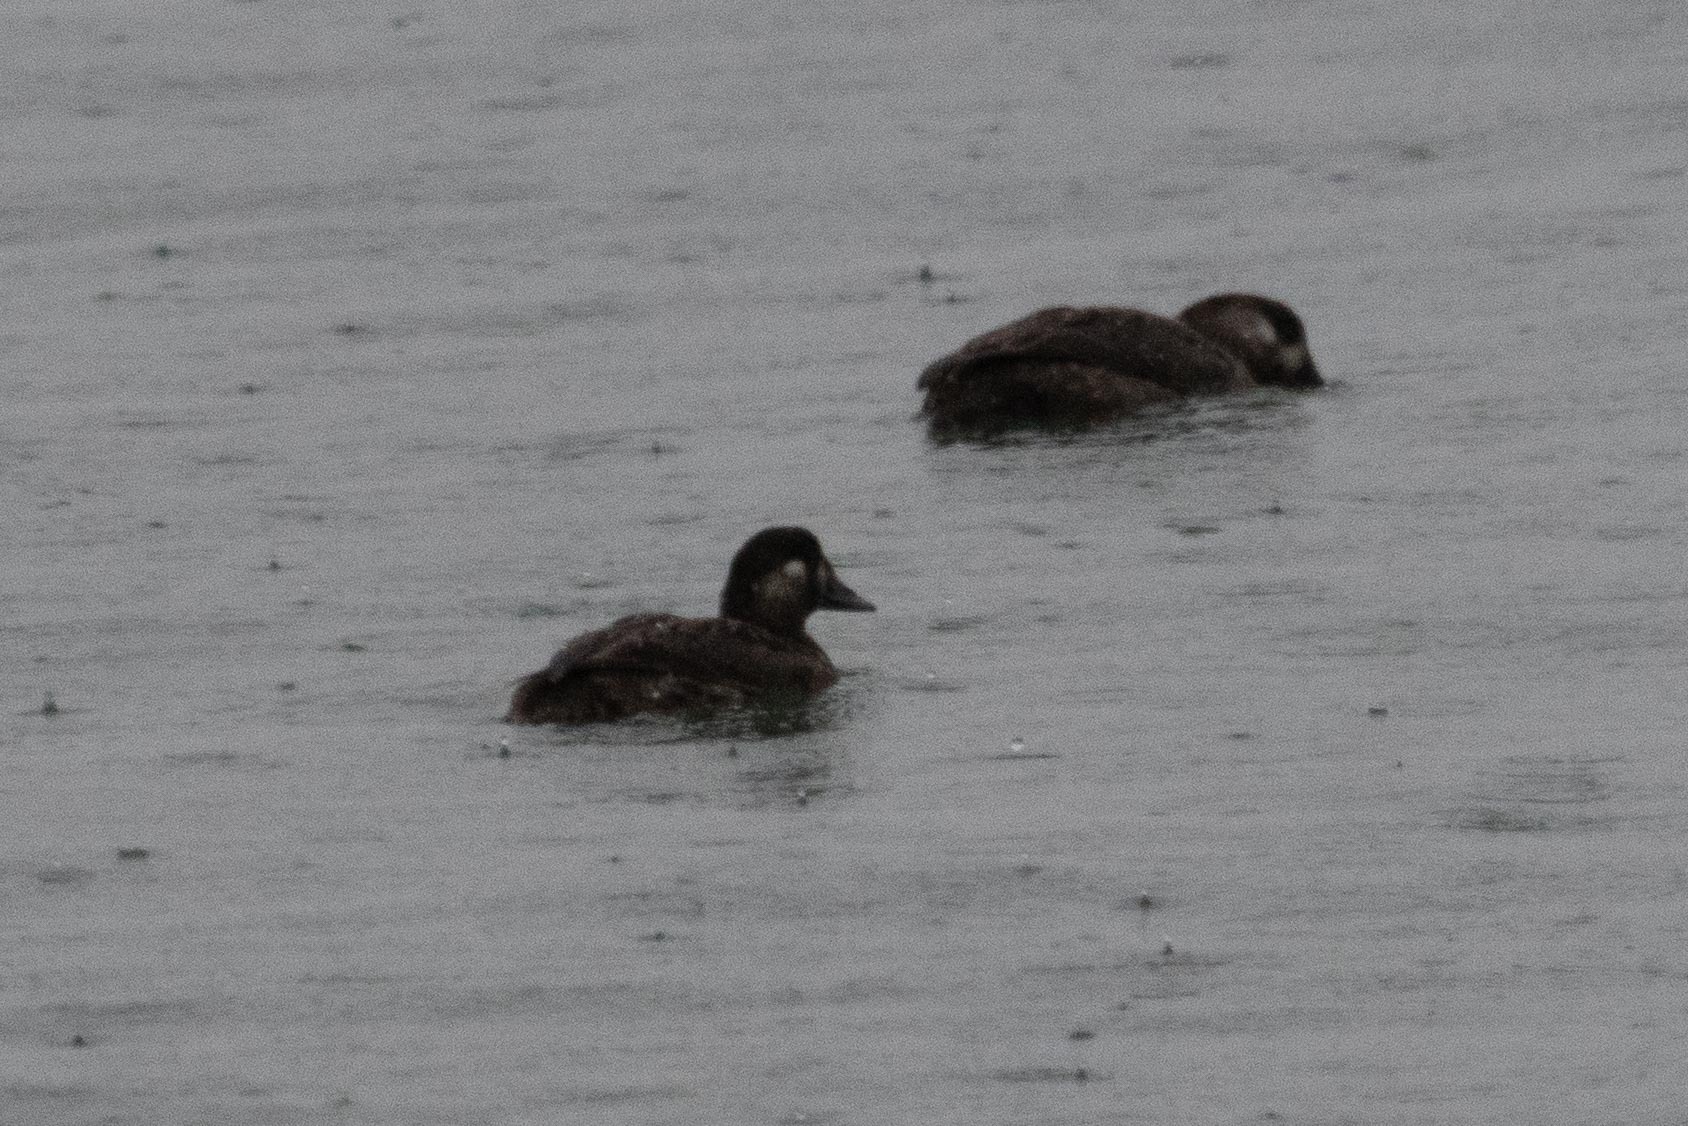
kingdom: Animalia
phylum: Chordata
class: Aves
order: Anseriformes
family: Anatidae
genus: Melanitta
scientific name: Melanitta perspicillata
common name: Surf scoter
